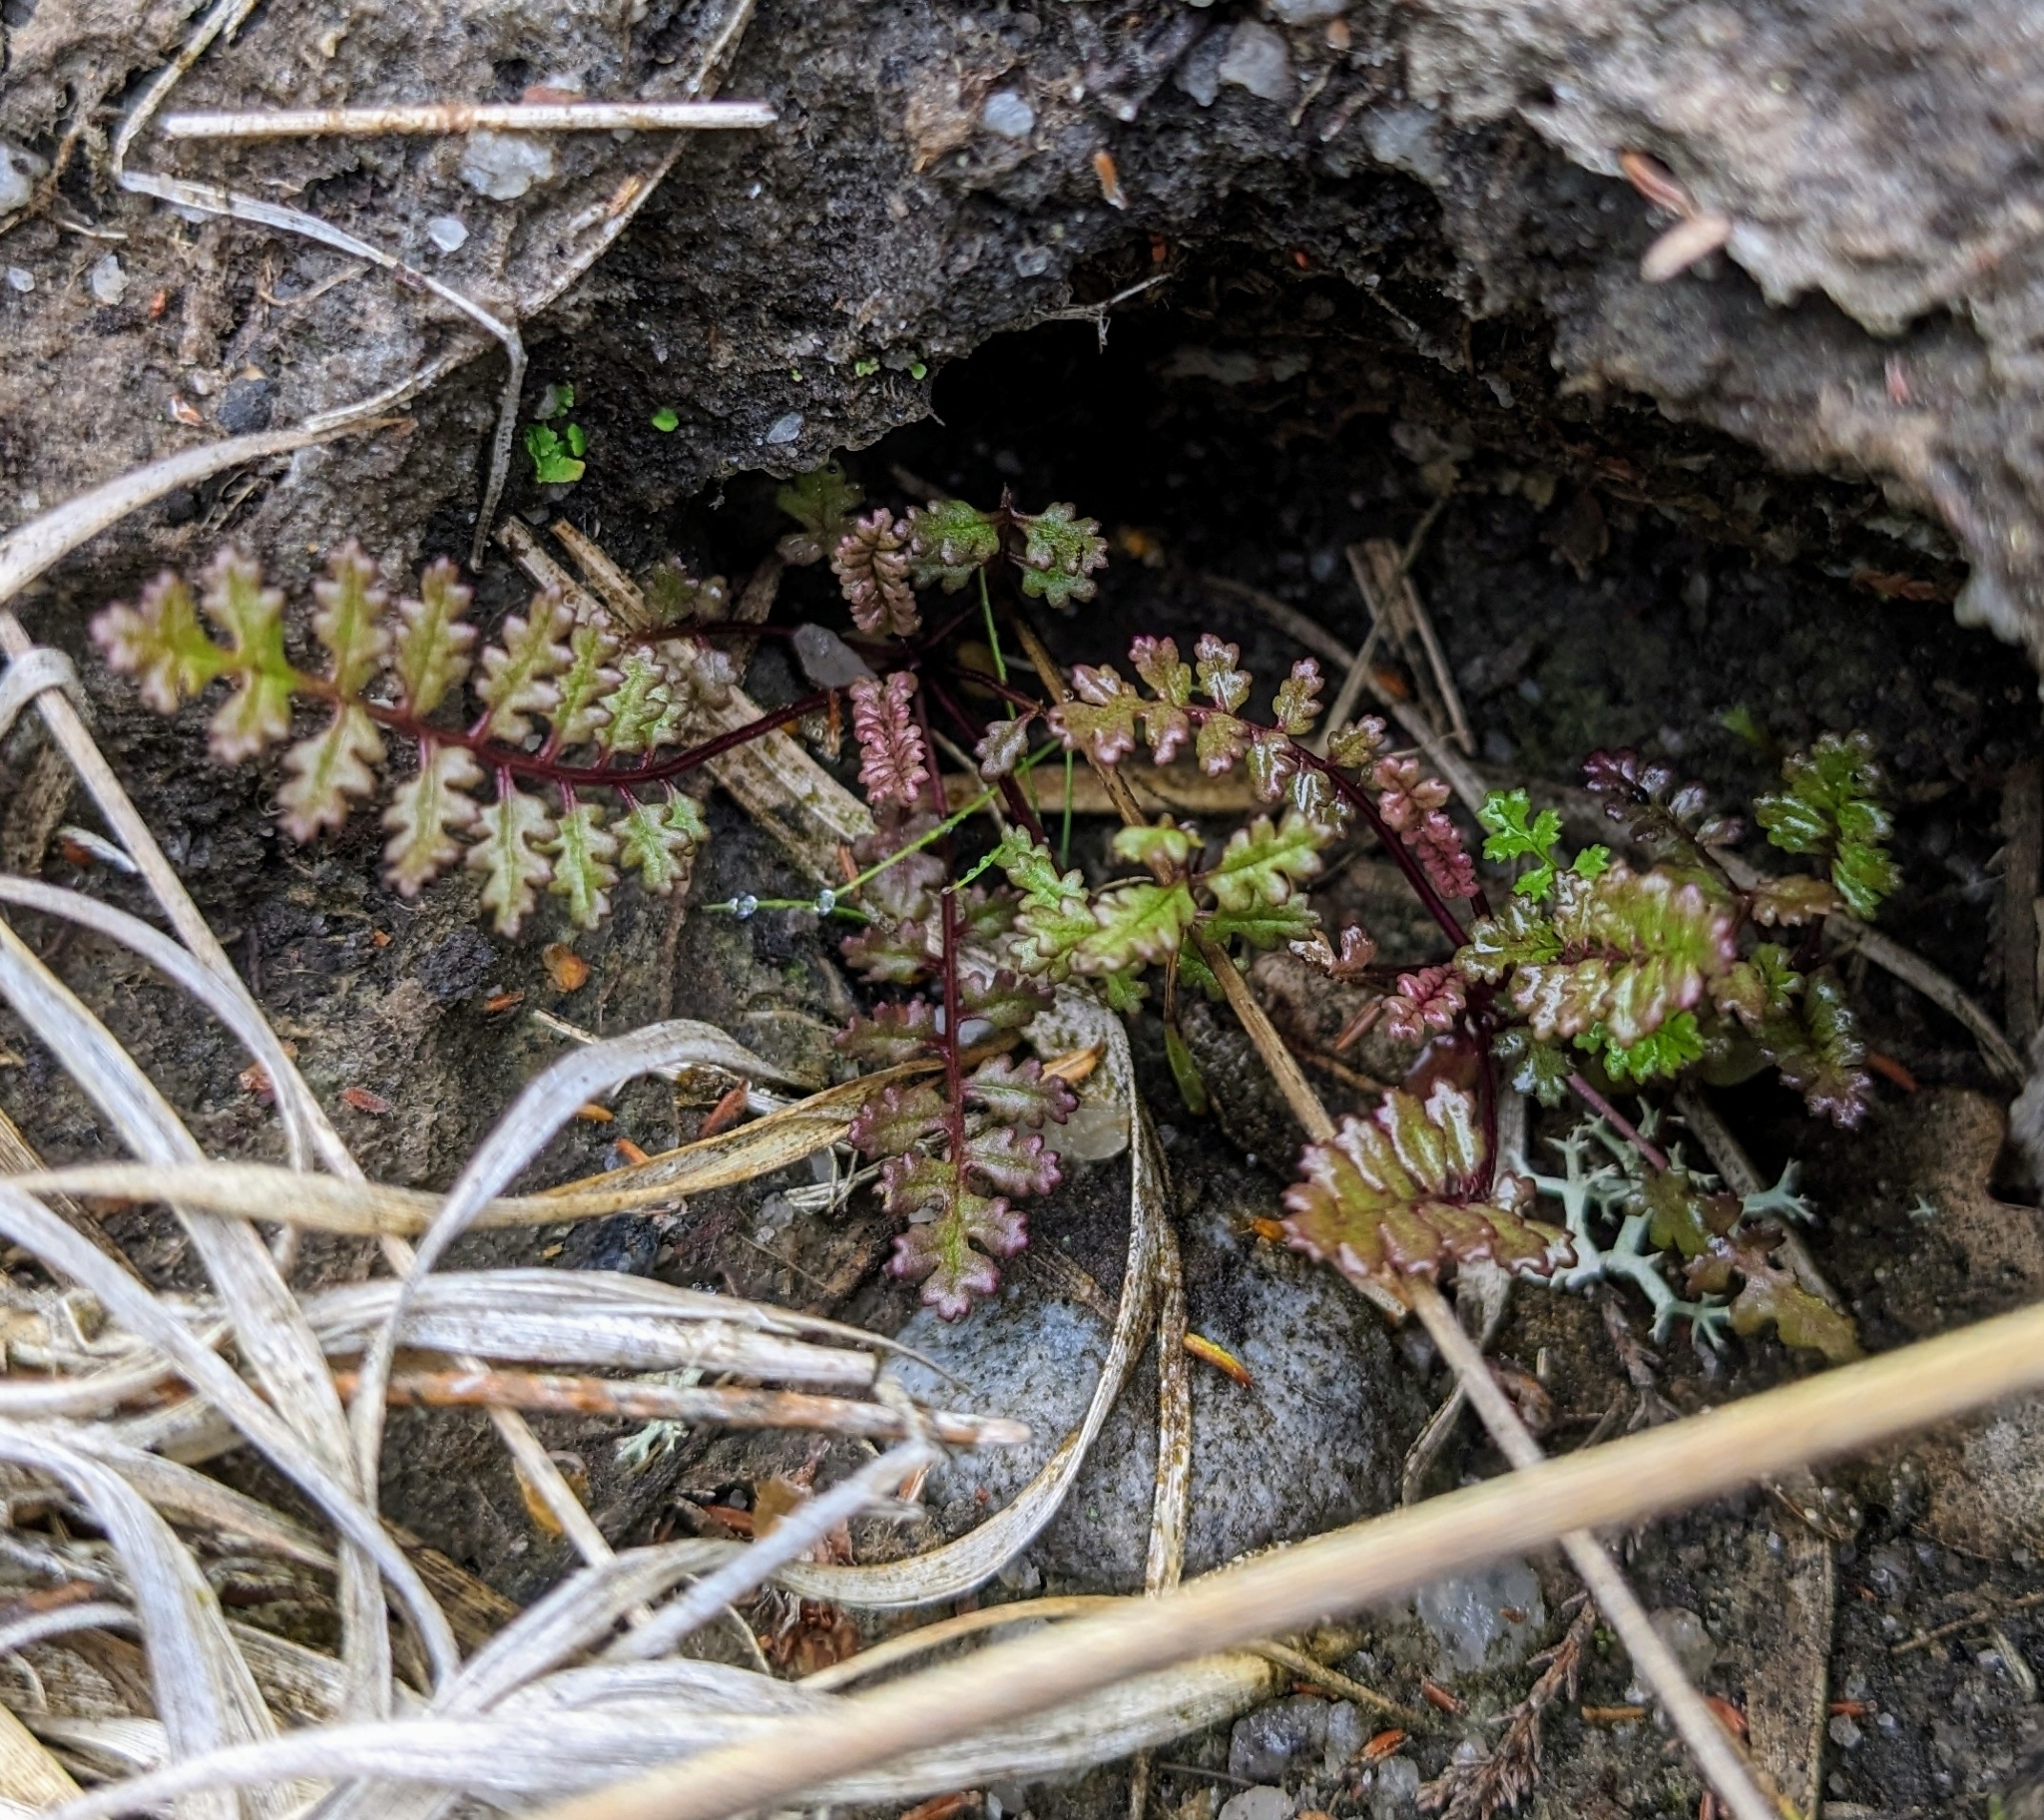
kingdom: Plantae
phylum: Tracheophyta
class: Magnoliopsida
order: Lamiales
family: Orobanchaceae
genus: Pedicularis
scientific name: Pedicularis sylvatica
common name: Lousewort
